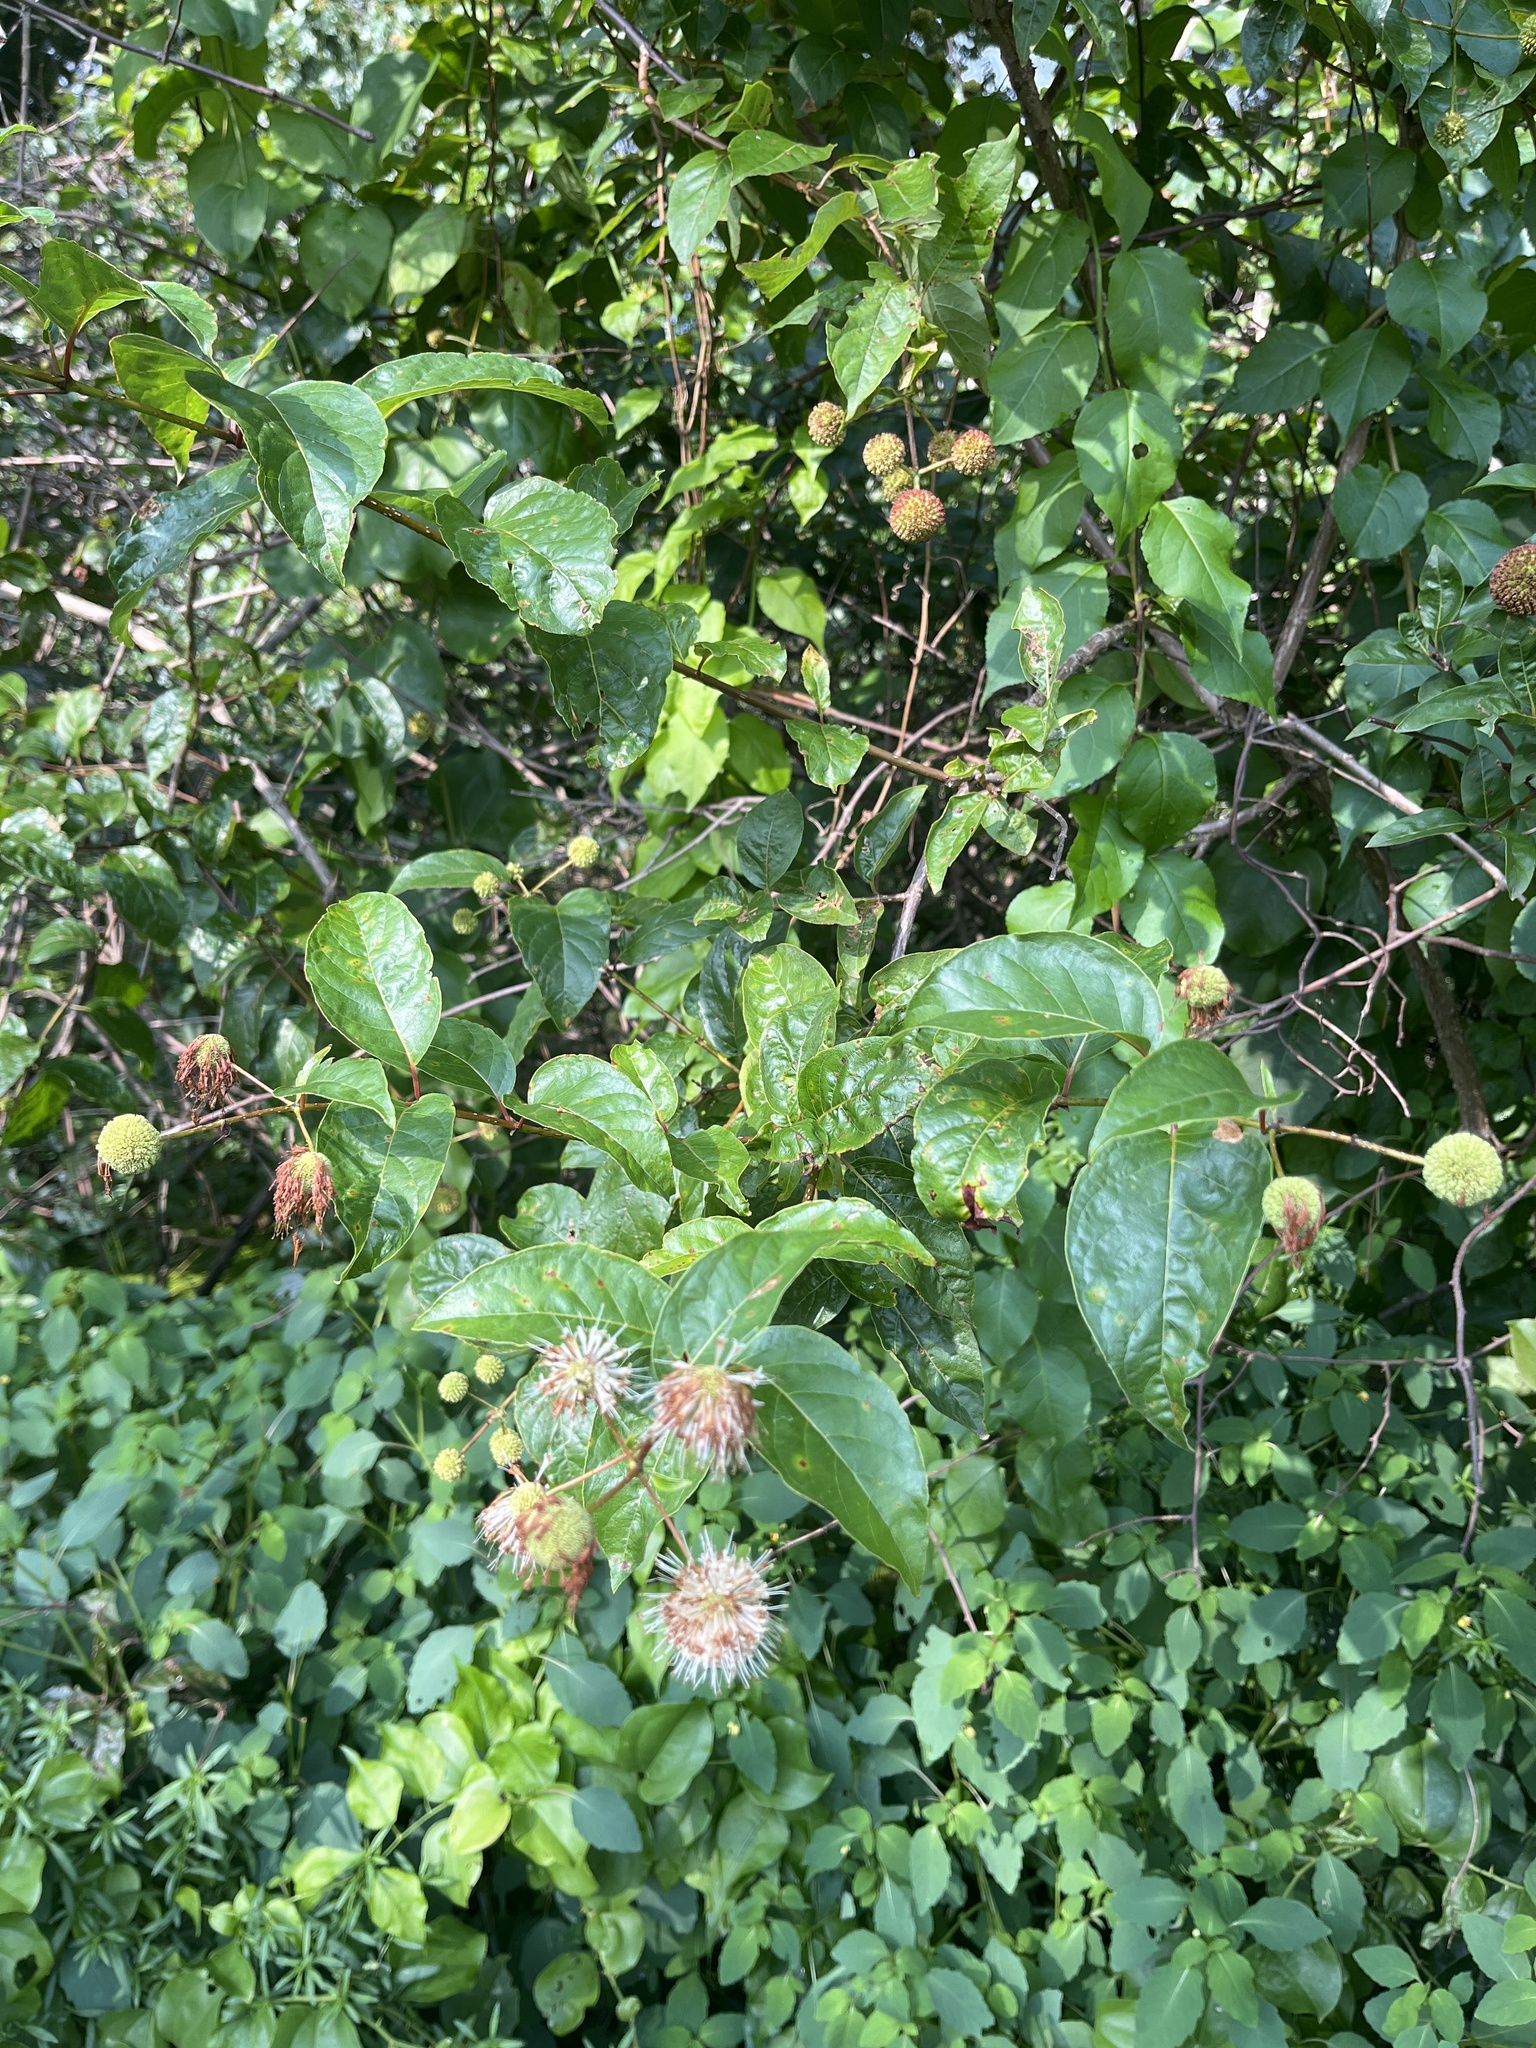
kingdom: Plantae
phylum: Tracheophyta
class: Magnoliopsida
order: Gentianales
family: Rubiaceae
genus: Cephalanthus
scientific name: Cephalanthus occidentalis
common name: Button-willow
